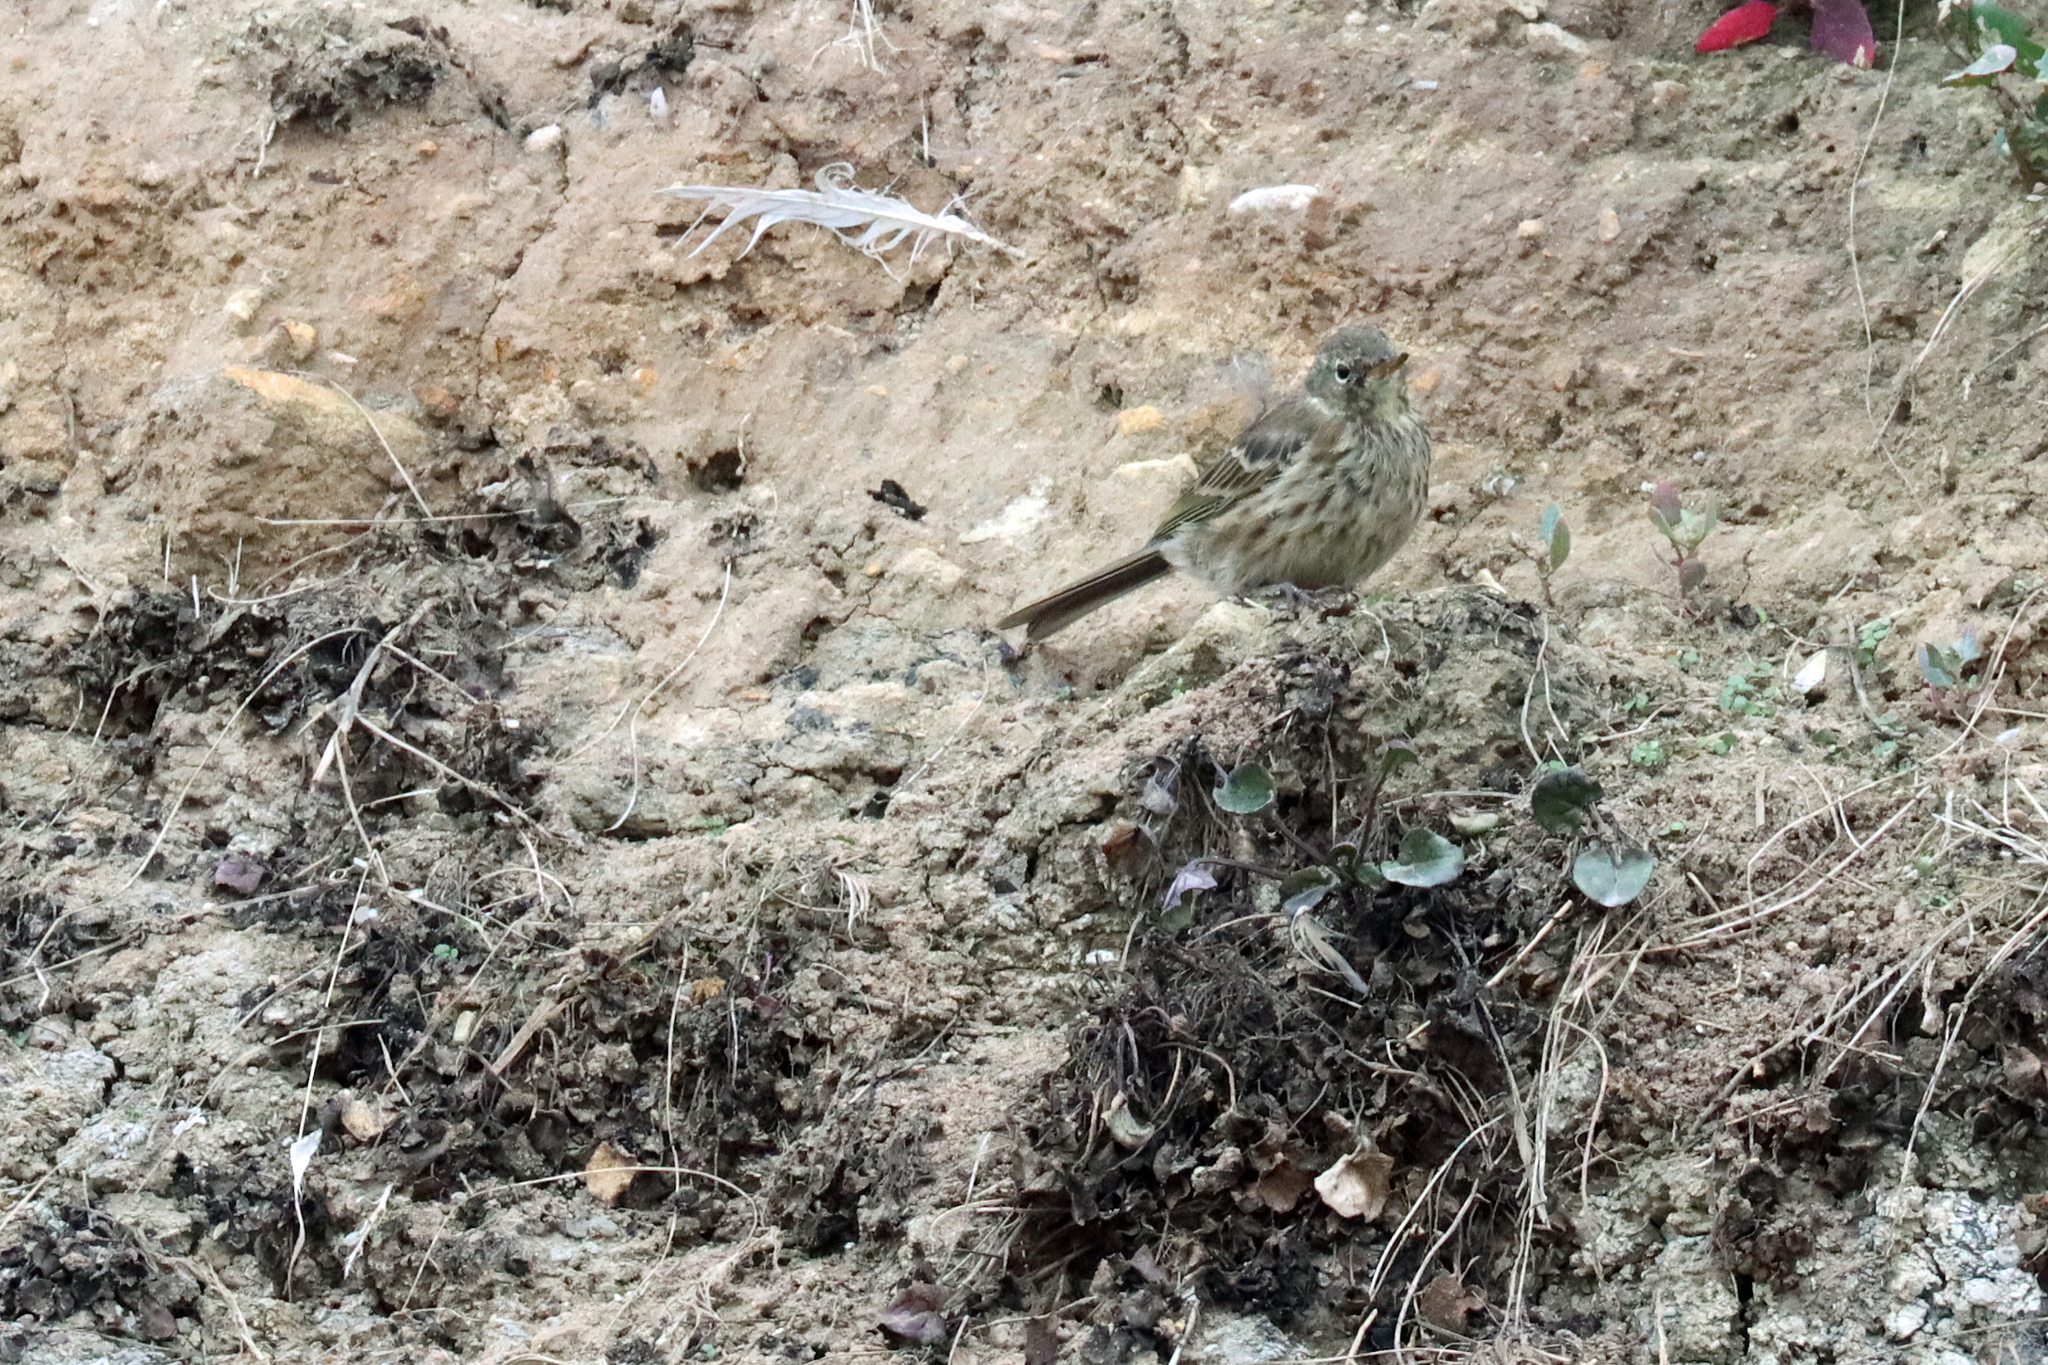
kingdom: Animalia
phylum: Chordata
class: Aves
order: Passeriformes
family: Motacillidae
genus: Anthus
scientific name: Anthus petrosus
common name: Eurasian rock pipit
